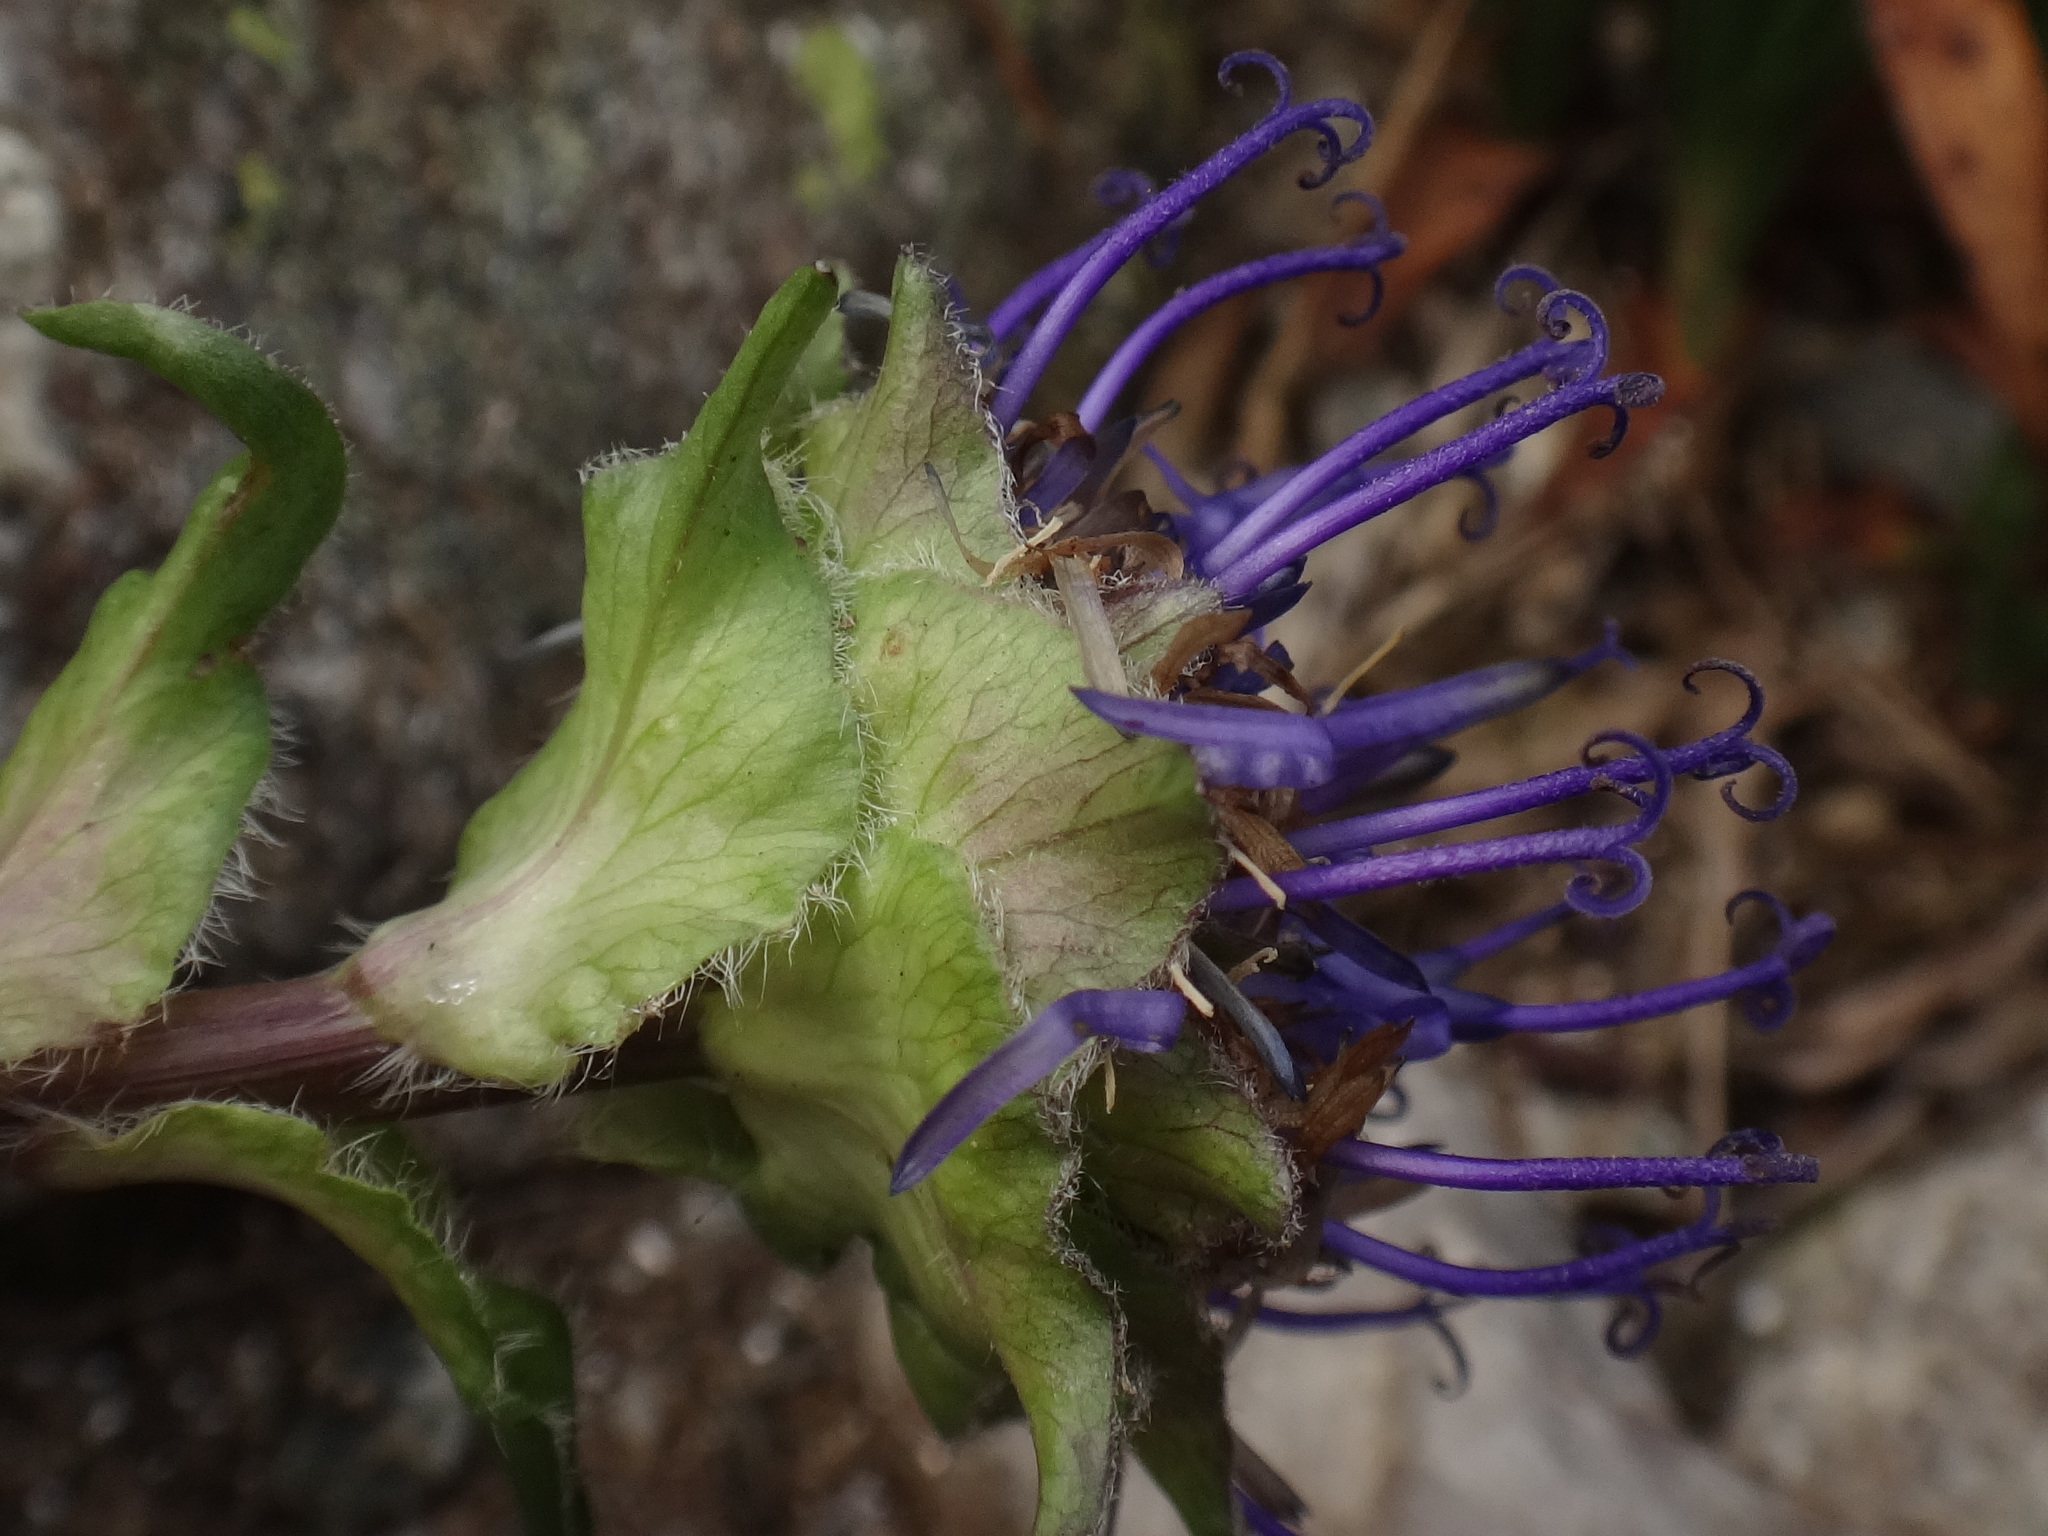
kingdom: Plantae
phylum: Tracheophyta
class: Magnoliopsida
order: Asterales
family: Campanulaceae
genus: Phyteuma
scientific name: Phyteuma confusum
